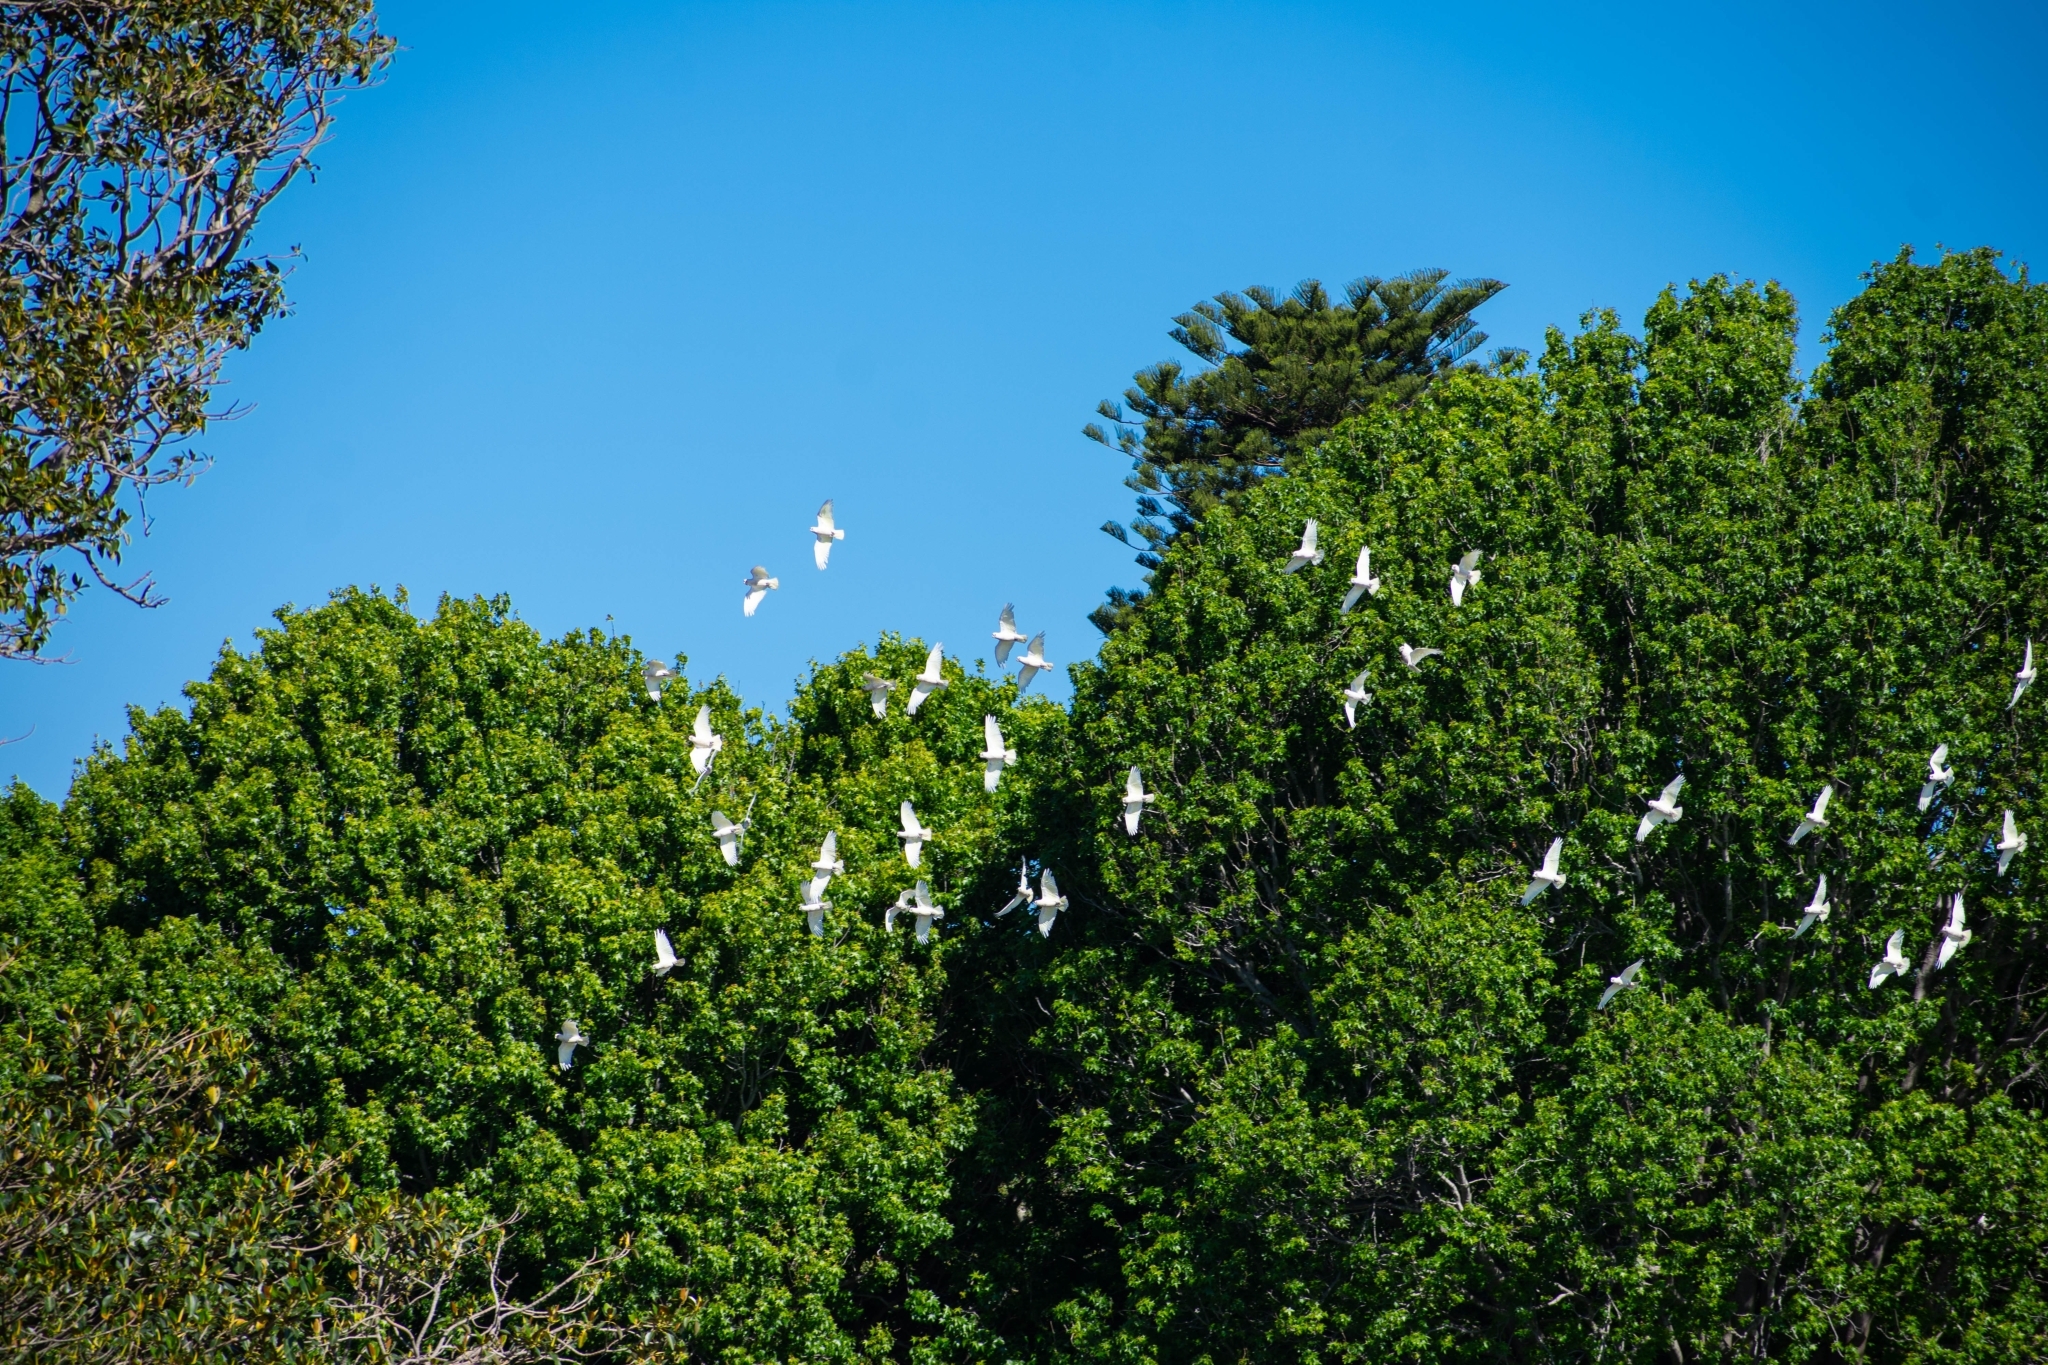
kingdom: Animalia
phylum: Chordata
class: Aves
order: Psittaciformes
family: Psittacidae
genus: Cacatua
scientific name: Cacatua sanguinea
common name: Little corella
